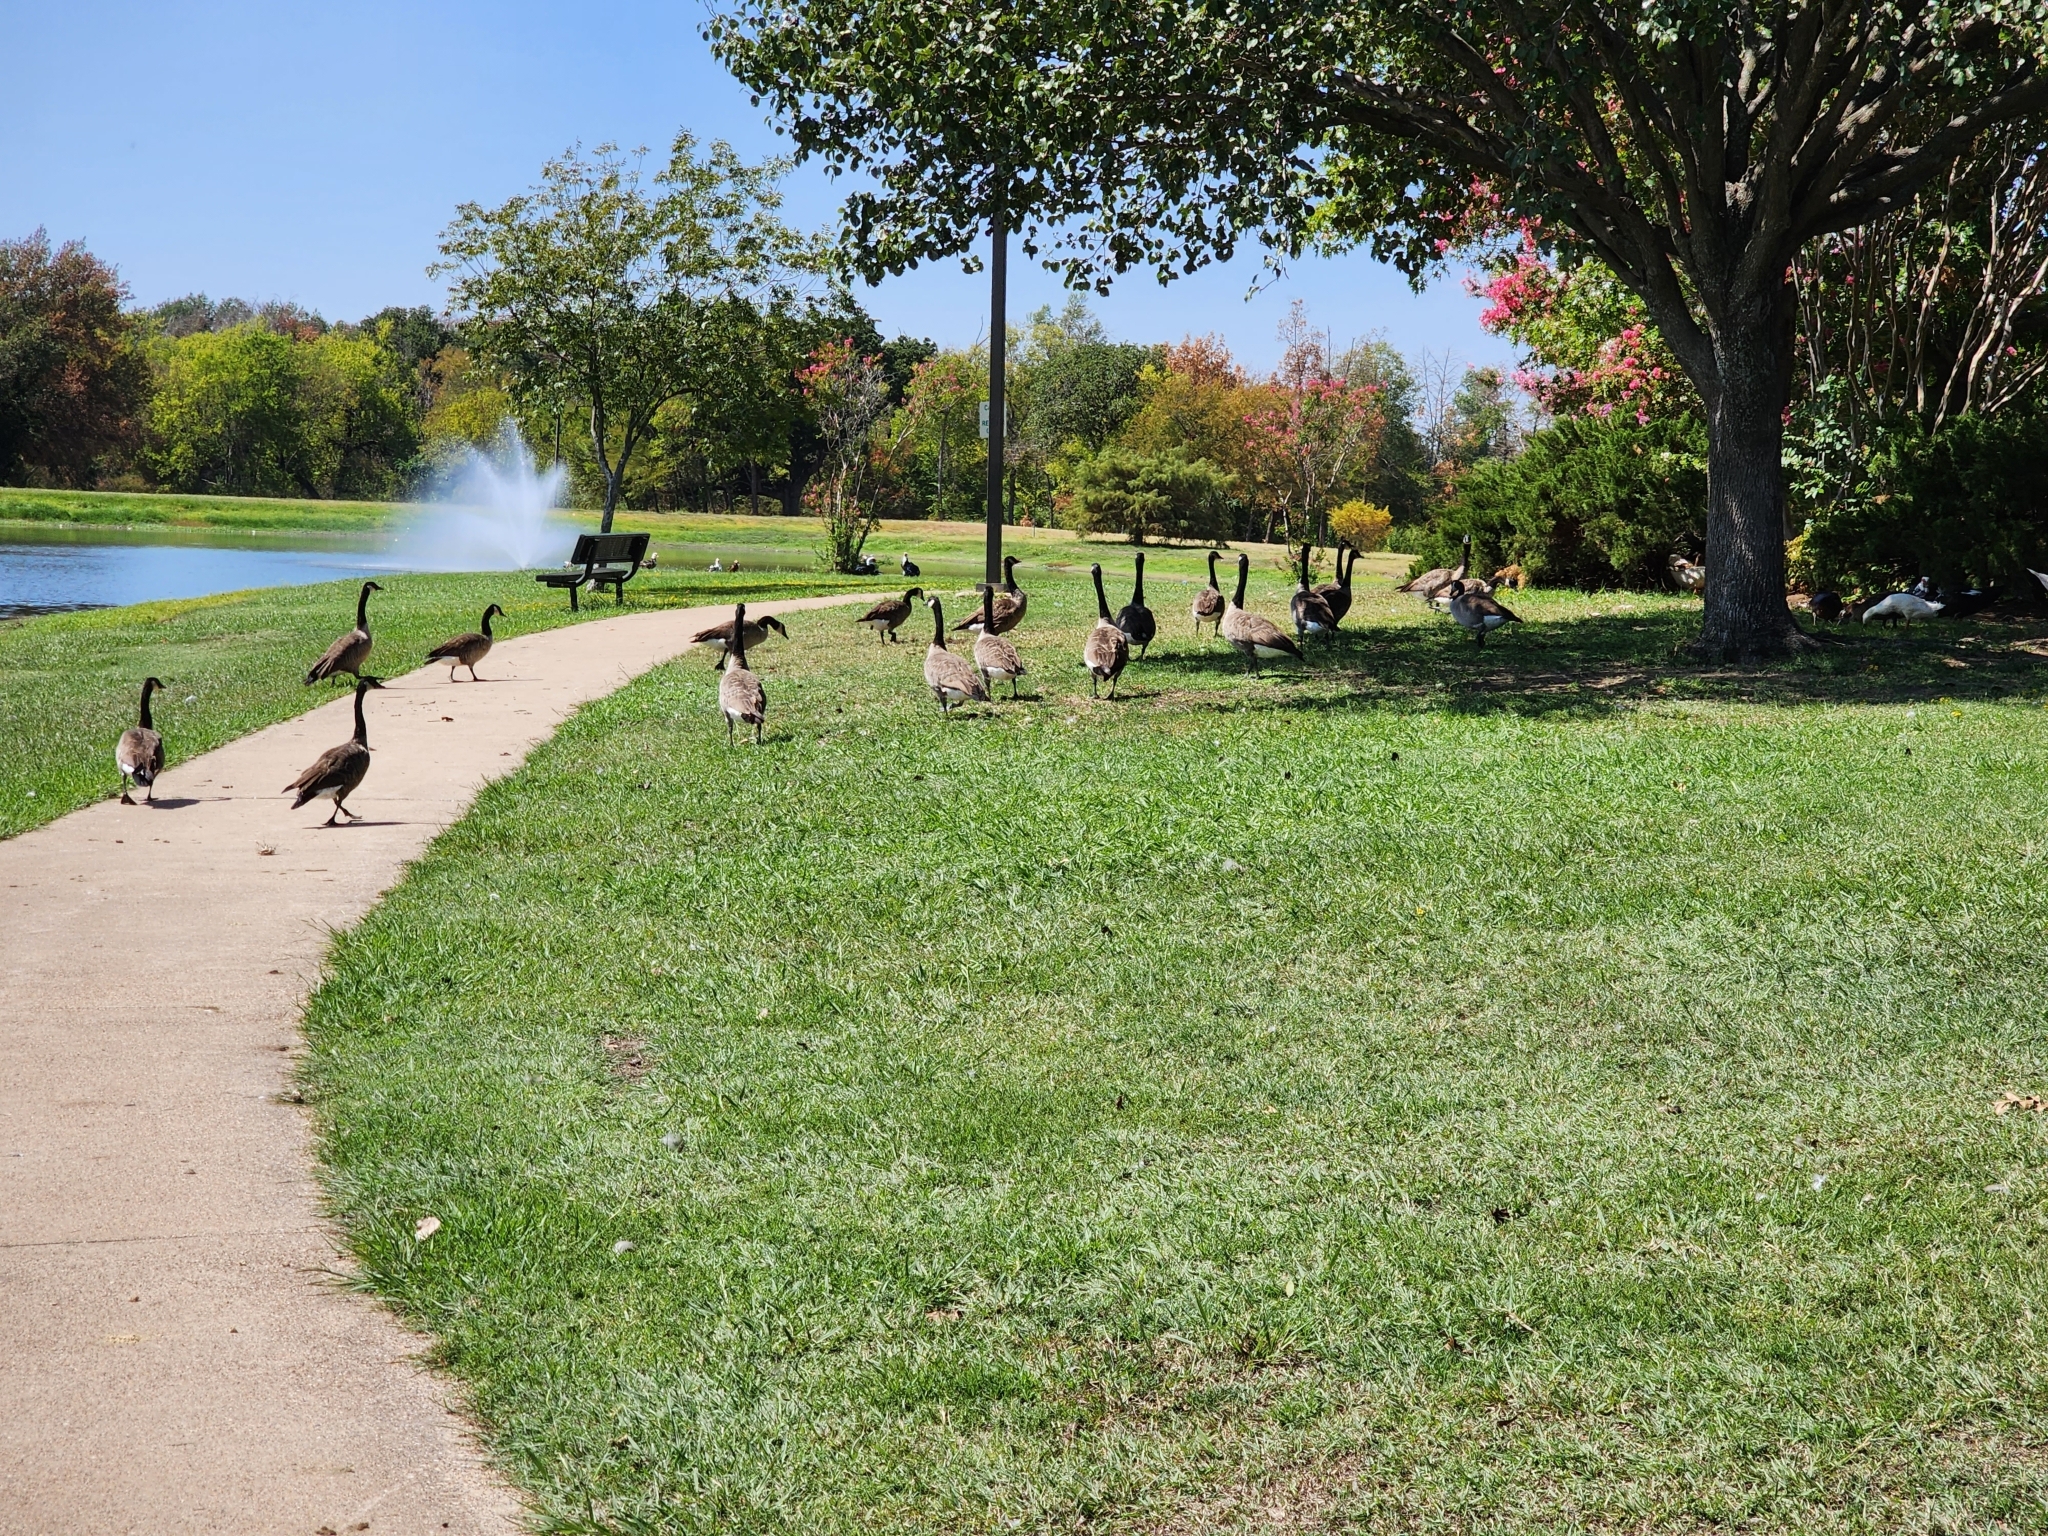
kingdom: Animalia
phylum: Chordata
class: Aves
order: Anseriformes
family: Anatidae
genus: Branta
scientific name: Branta canadensis
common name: Canada goose
